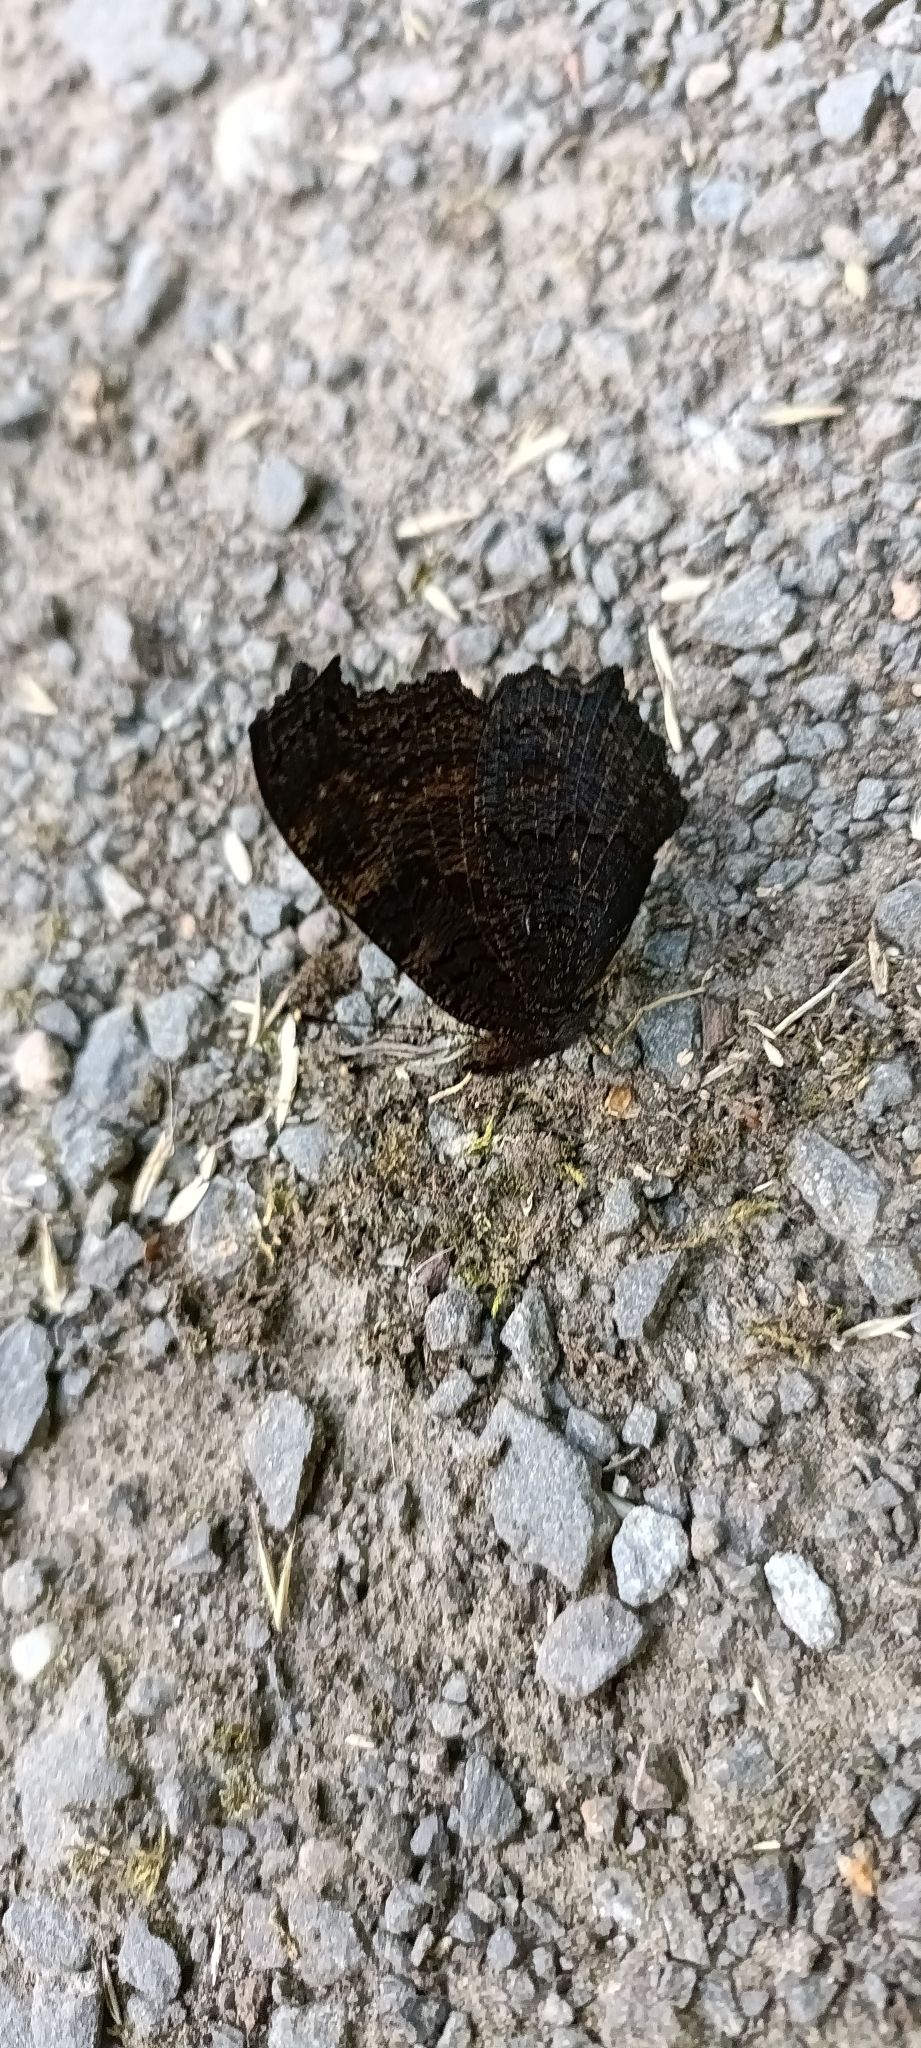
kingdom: Animalia
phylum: Arthropoda
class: Insecta
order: Lepidoptera
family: Nymphalidae
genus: Aglais
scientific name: Aglais io
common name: Peacock
